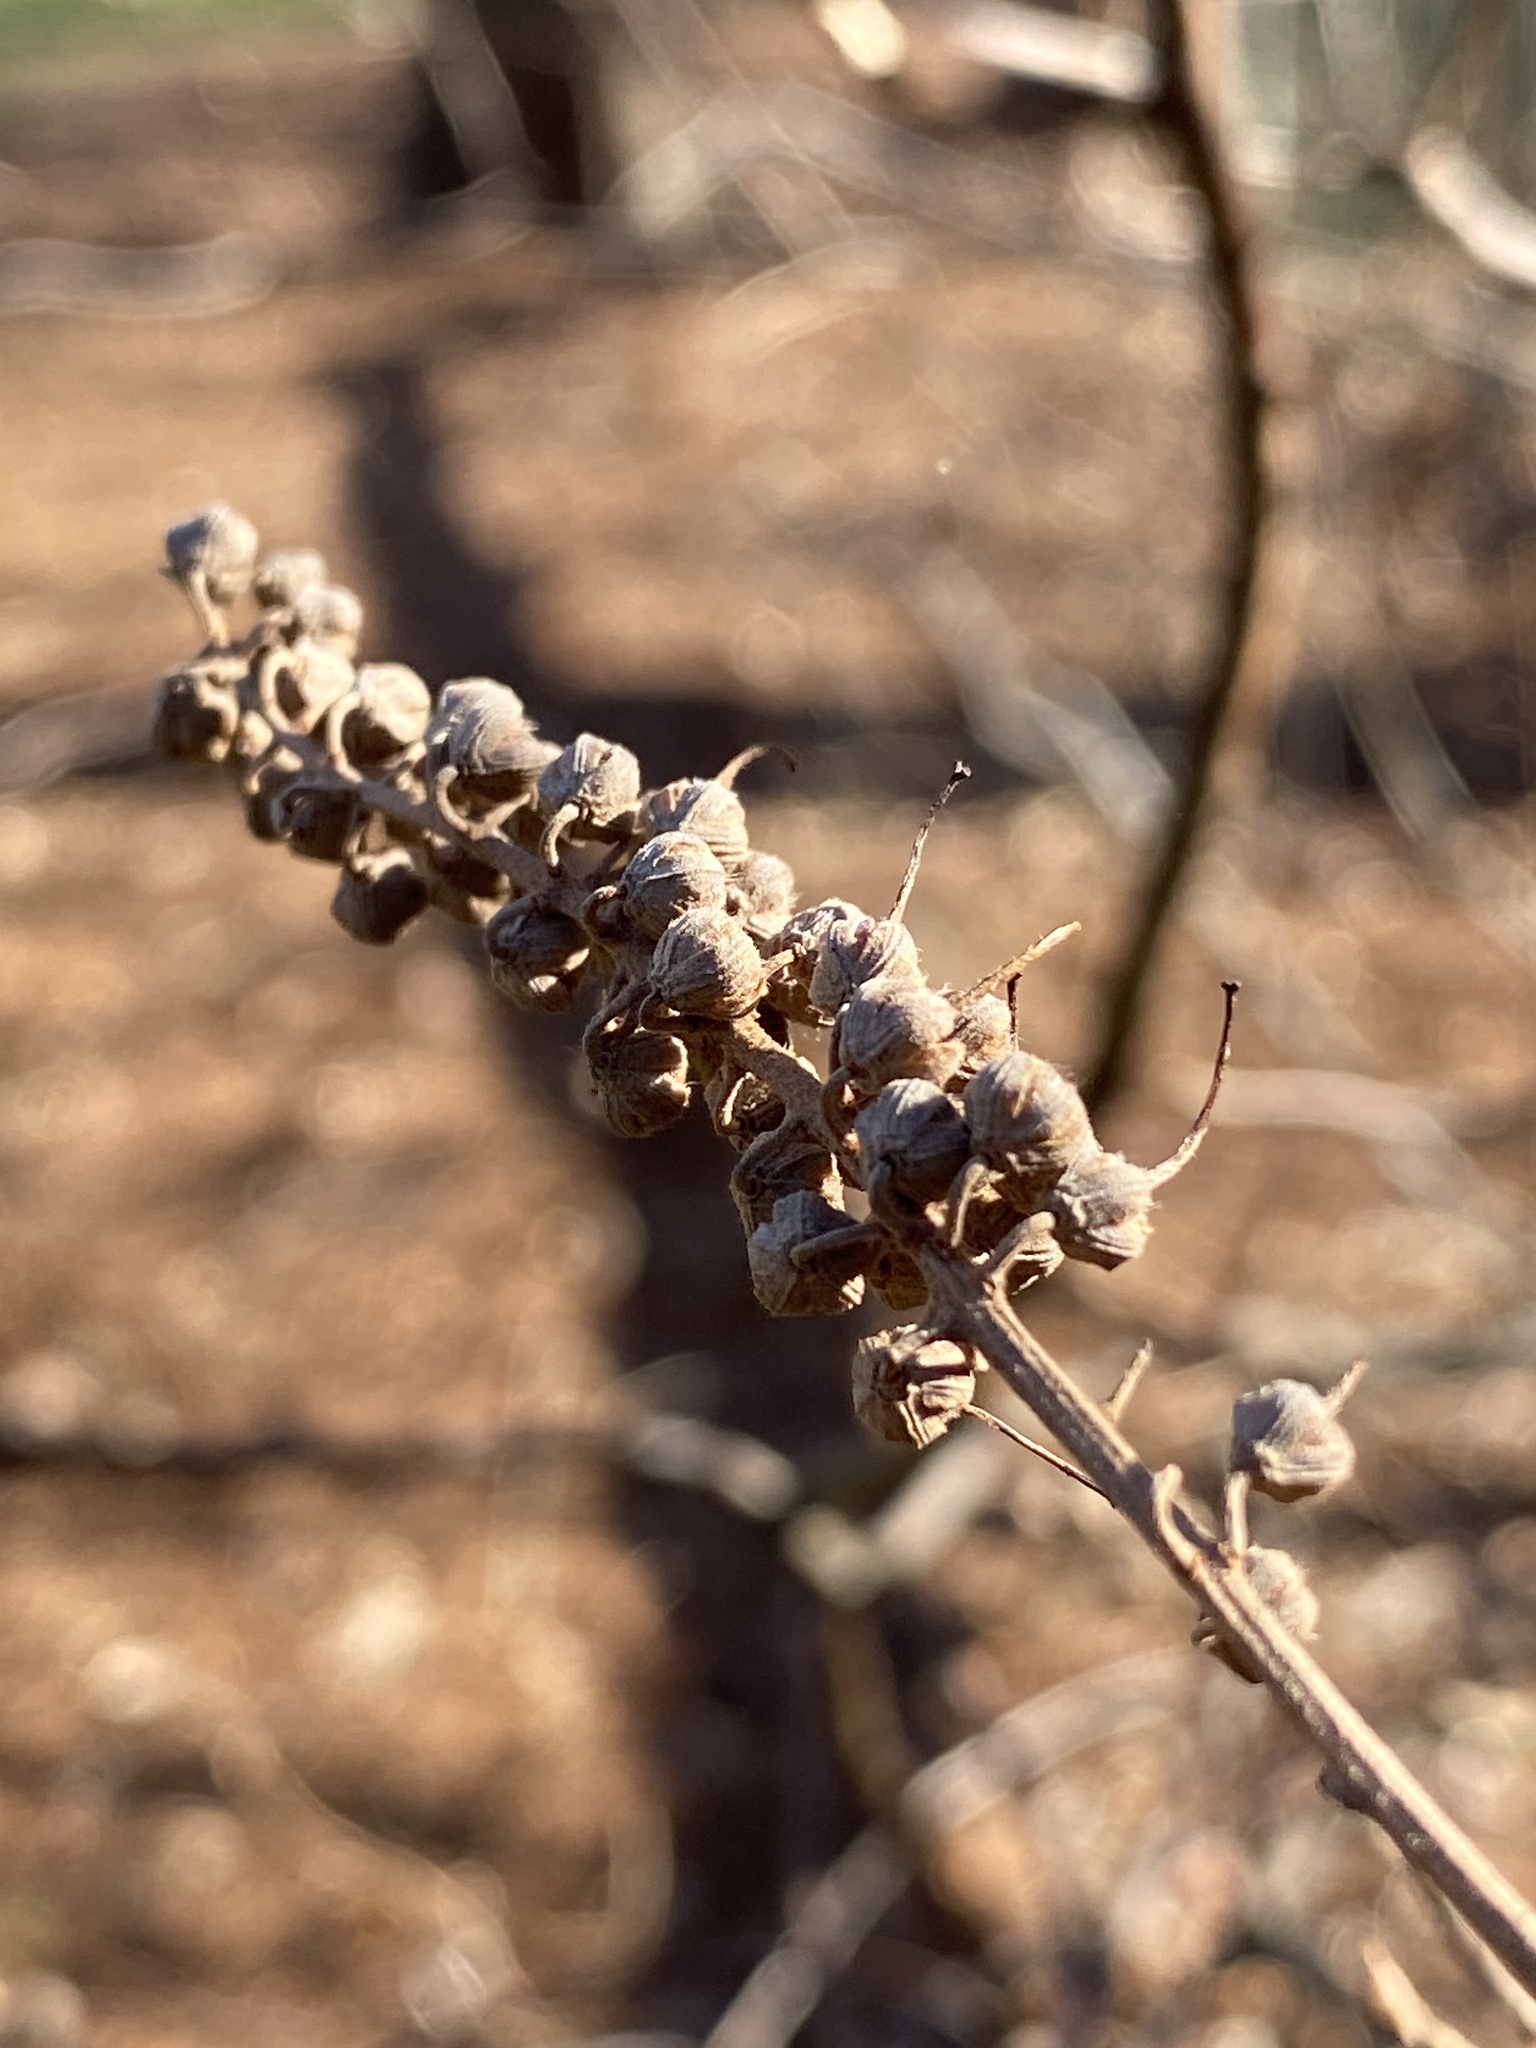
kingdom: Plantae
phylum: Tracheophyta
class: Magnoliopsida
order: Ericales
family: Clethraceae
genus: Clethra
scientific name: Clethra alnifolia
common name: Sweet pepperbush
